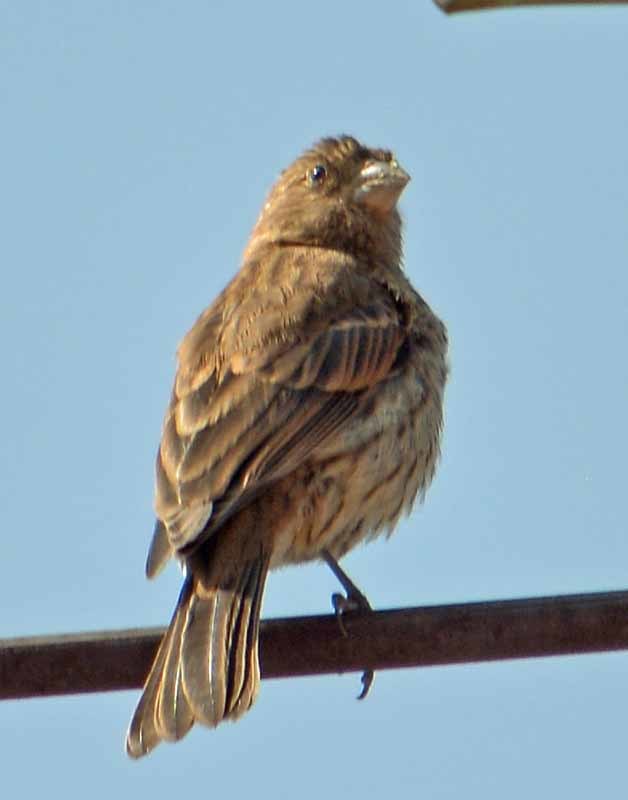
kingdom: Animalia
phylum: Chordata
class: Aves
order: Passeriformes
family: Fringillidae
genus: Haemorhous
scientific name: Haemorhous mexicanus
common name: House finch
